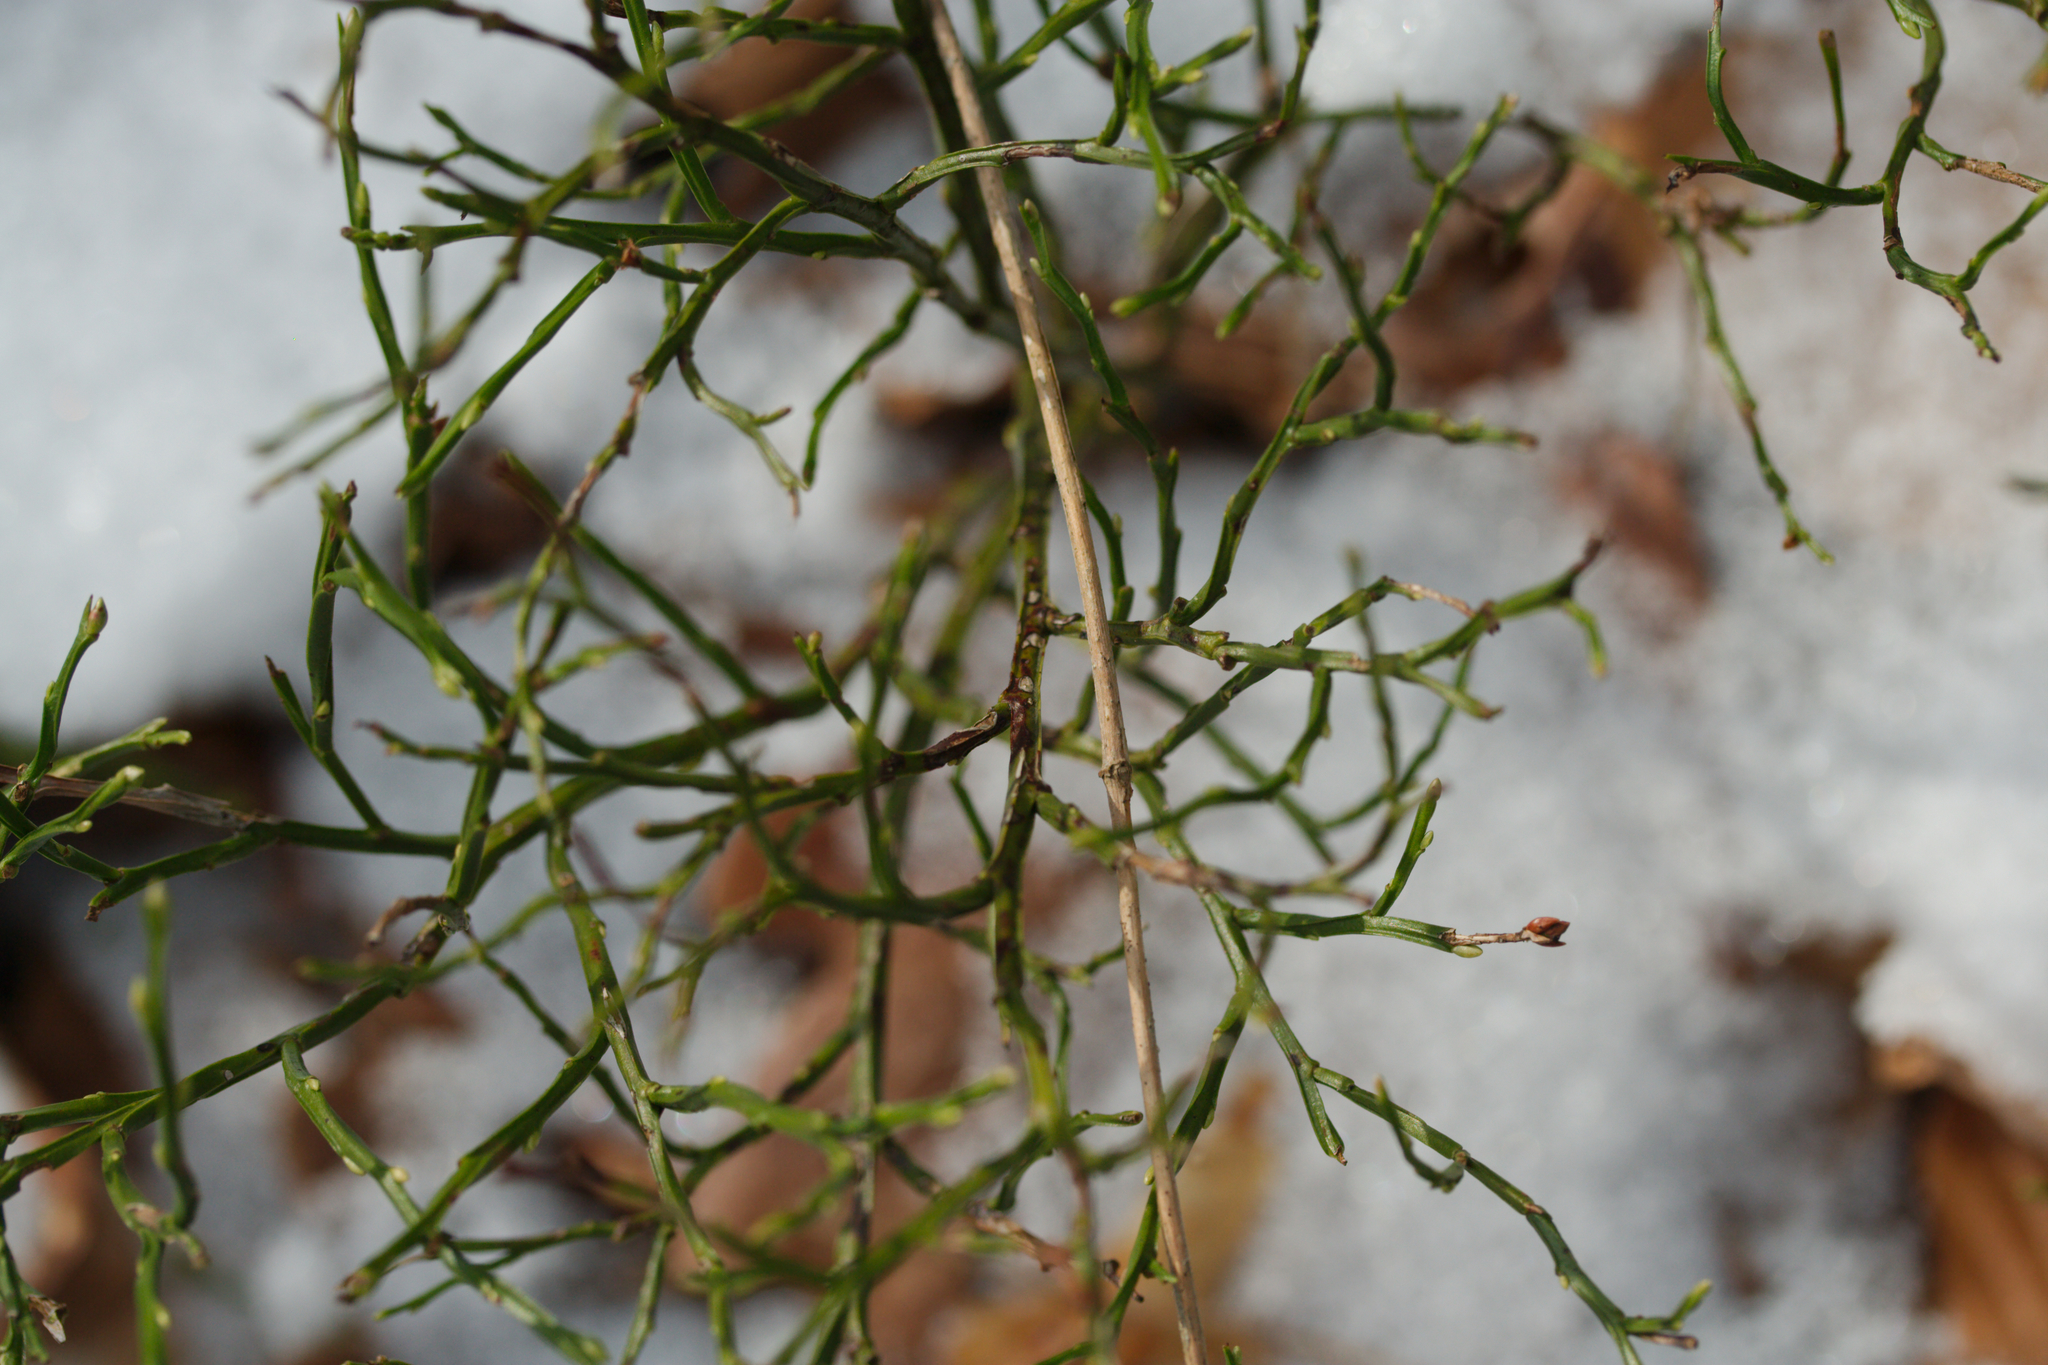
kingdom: Plantae
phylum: Tracheophyta
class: Magnoliopsida
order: Ericales
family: Ericaceae
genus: Vaccinium
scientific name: Vaccinium myrtillus
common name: Bilberry
